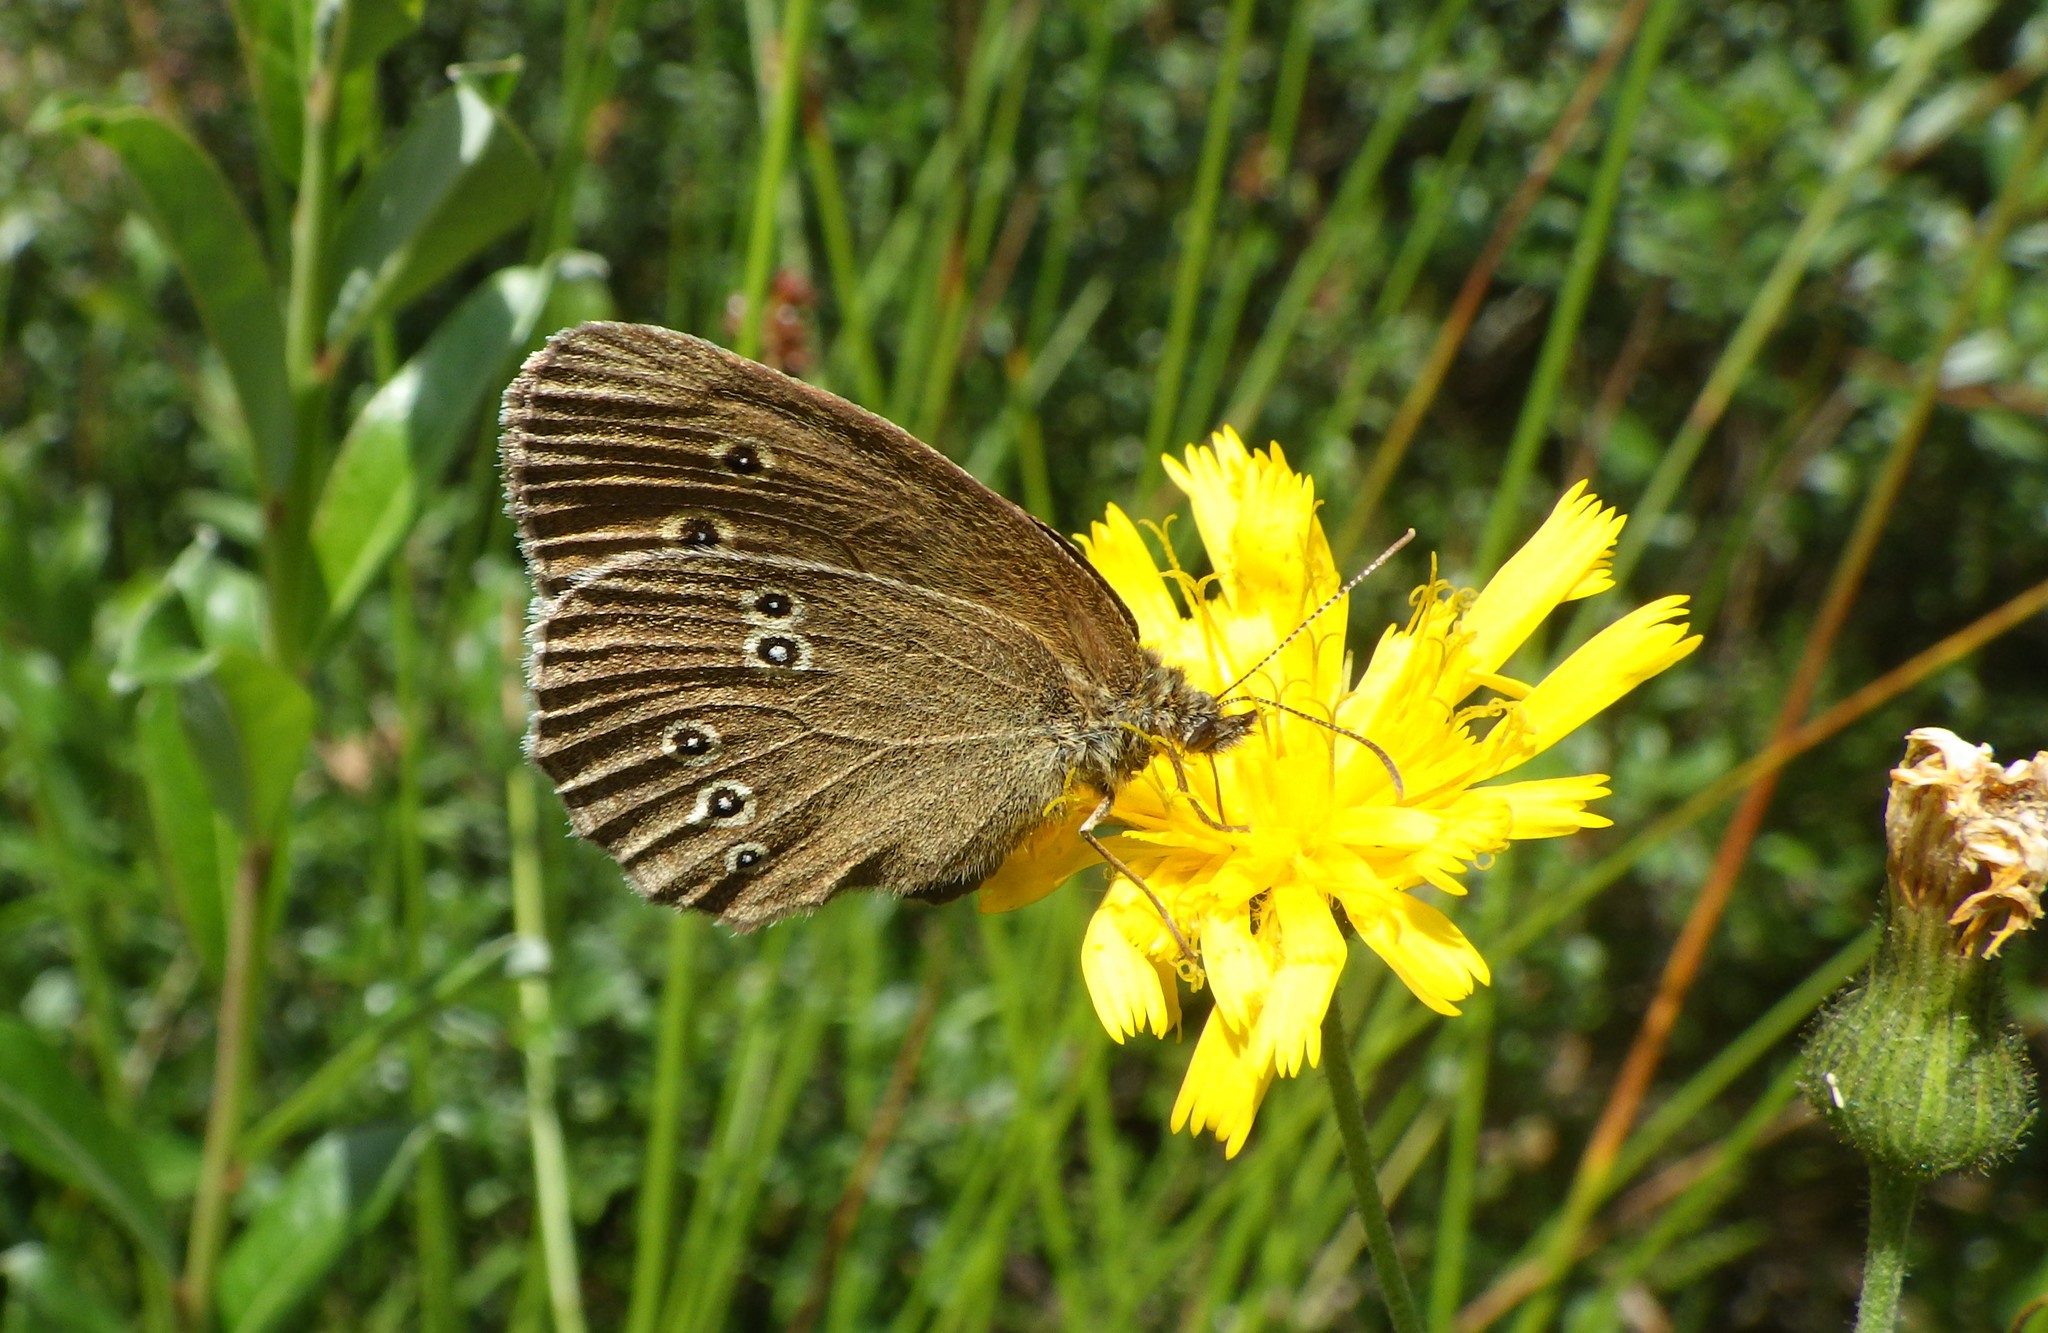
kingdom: Animalia
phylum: Arthropoda
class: Insecta
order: Lepidoptera
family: Nymphalidae
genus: Aphantopus
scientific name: Aphantopus hyperantus
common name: Ringlet
